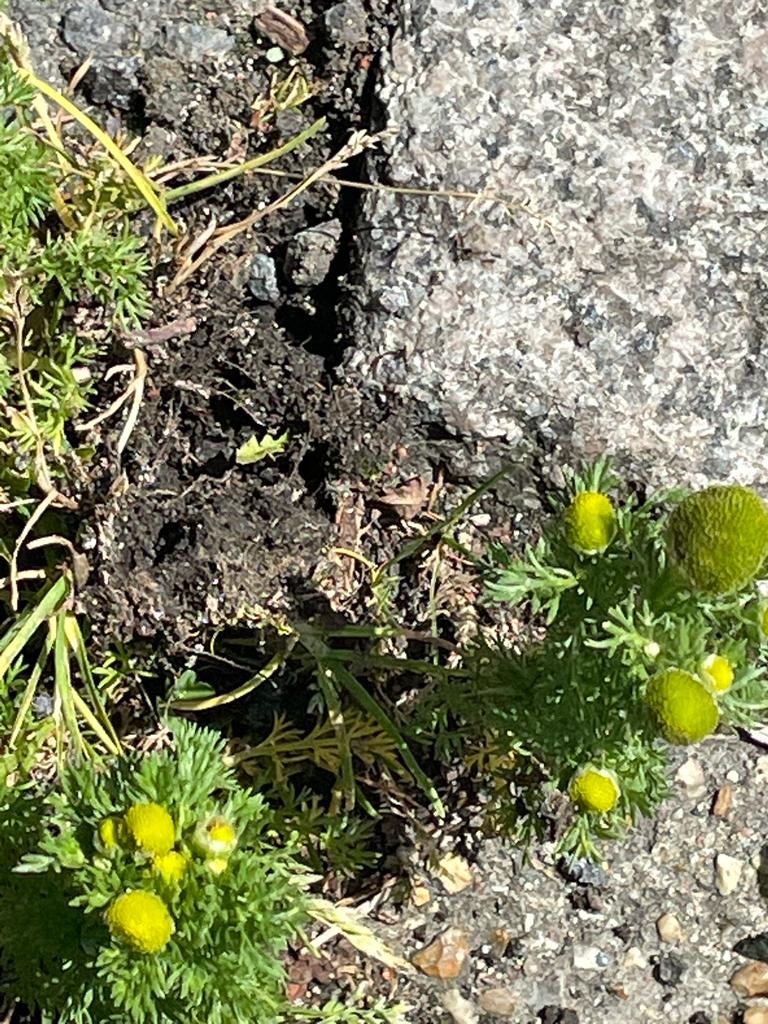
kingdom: Plantae
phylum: Tracheophyta
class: Magnoliopsida
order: Asterales
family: Asteraceae
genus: Matricaria
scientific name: Matricaria discoidea
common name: Disc mayweed
